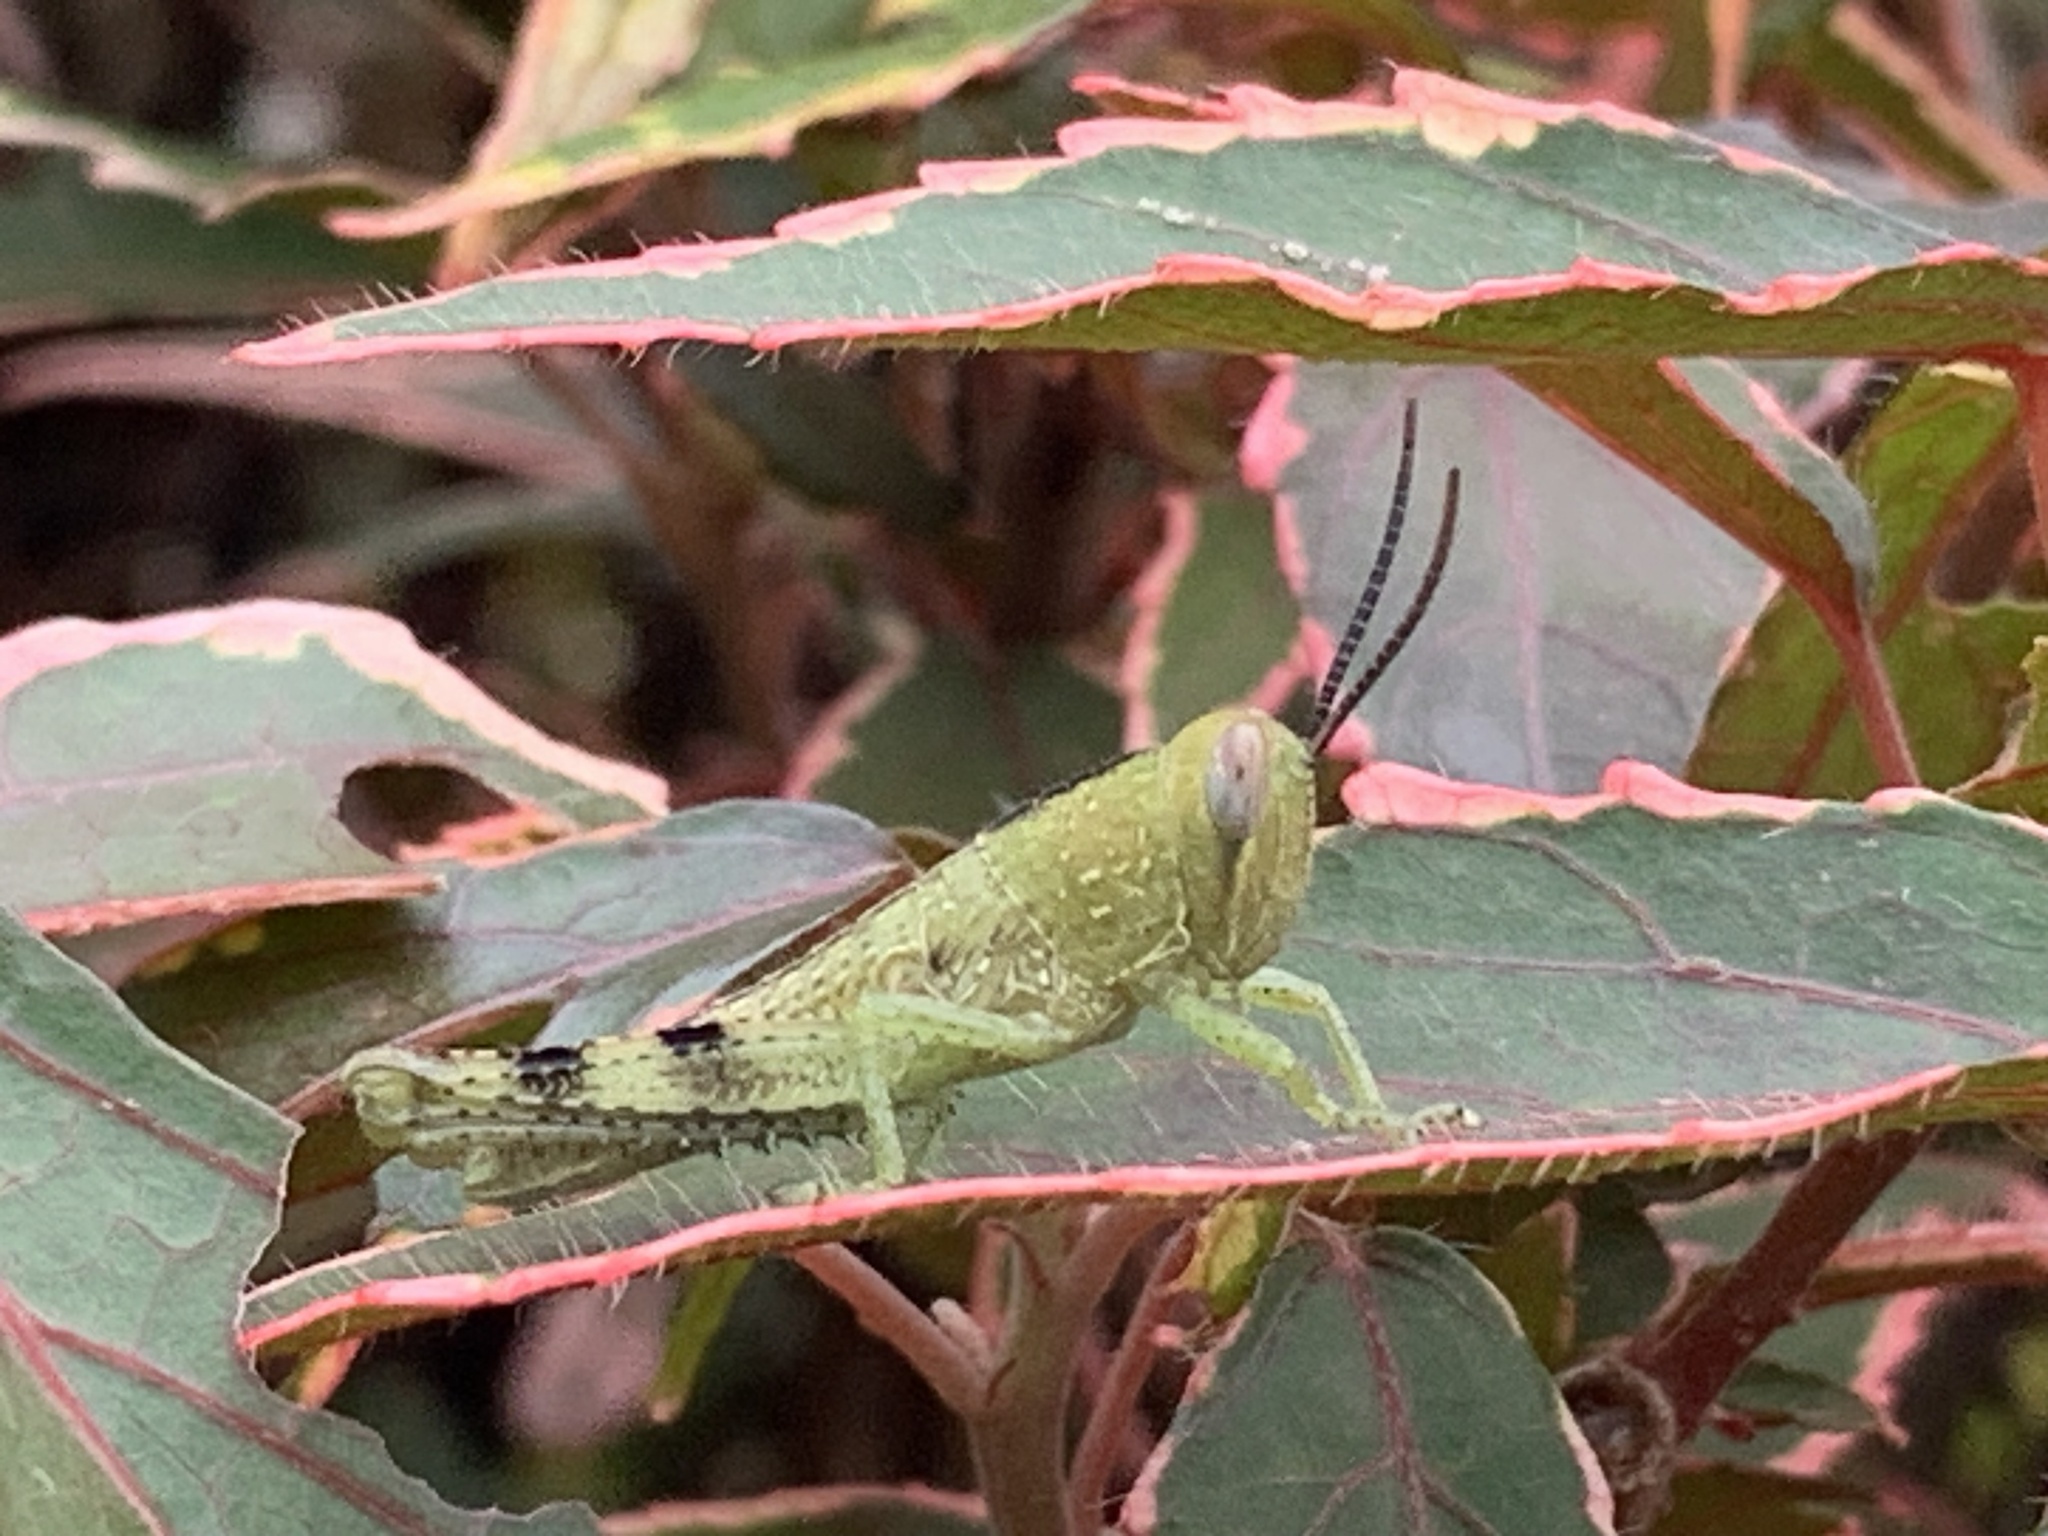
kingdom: Animalia
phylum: Arthropoda
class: Insecta
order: Orthoptera
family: Acrididae
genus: Valanga
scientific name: Valanga irregularis
